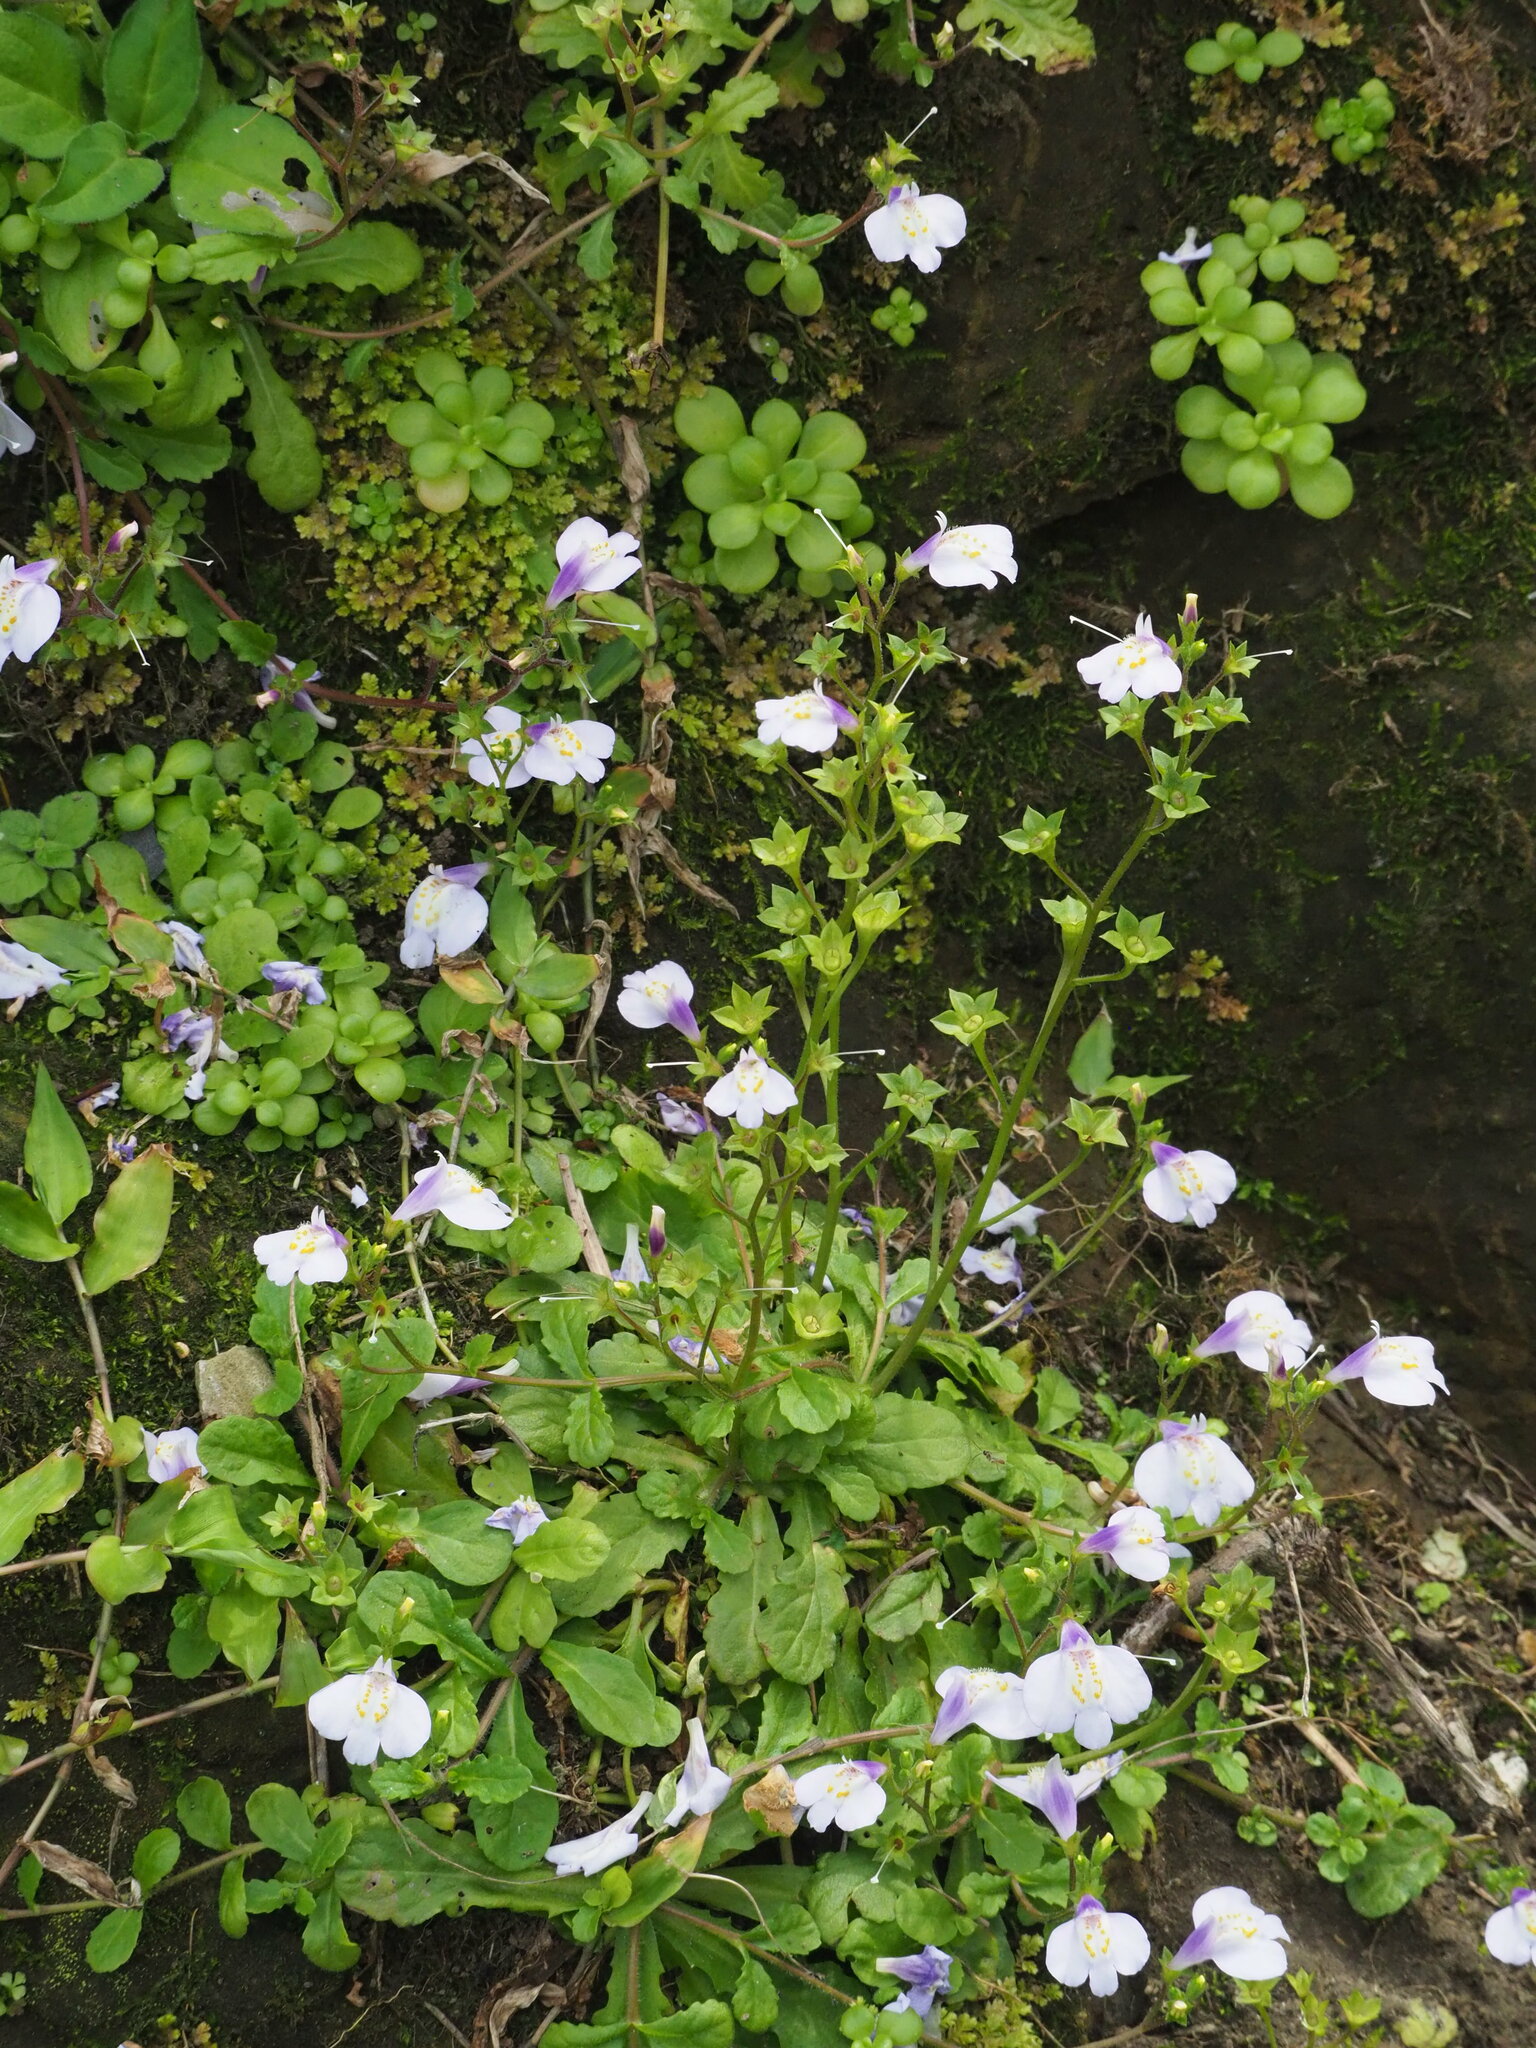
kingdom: Plantae
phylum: Tracheophyta
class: Magnoliopsida
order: Lamiales
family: Mazaceae
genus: Mazus
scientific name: Mazus fauriei
